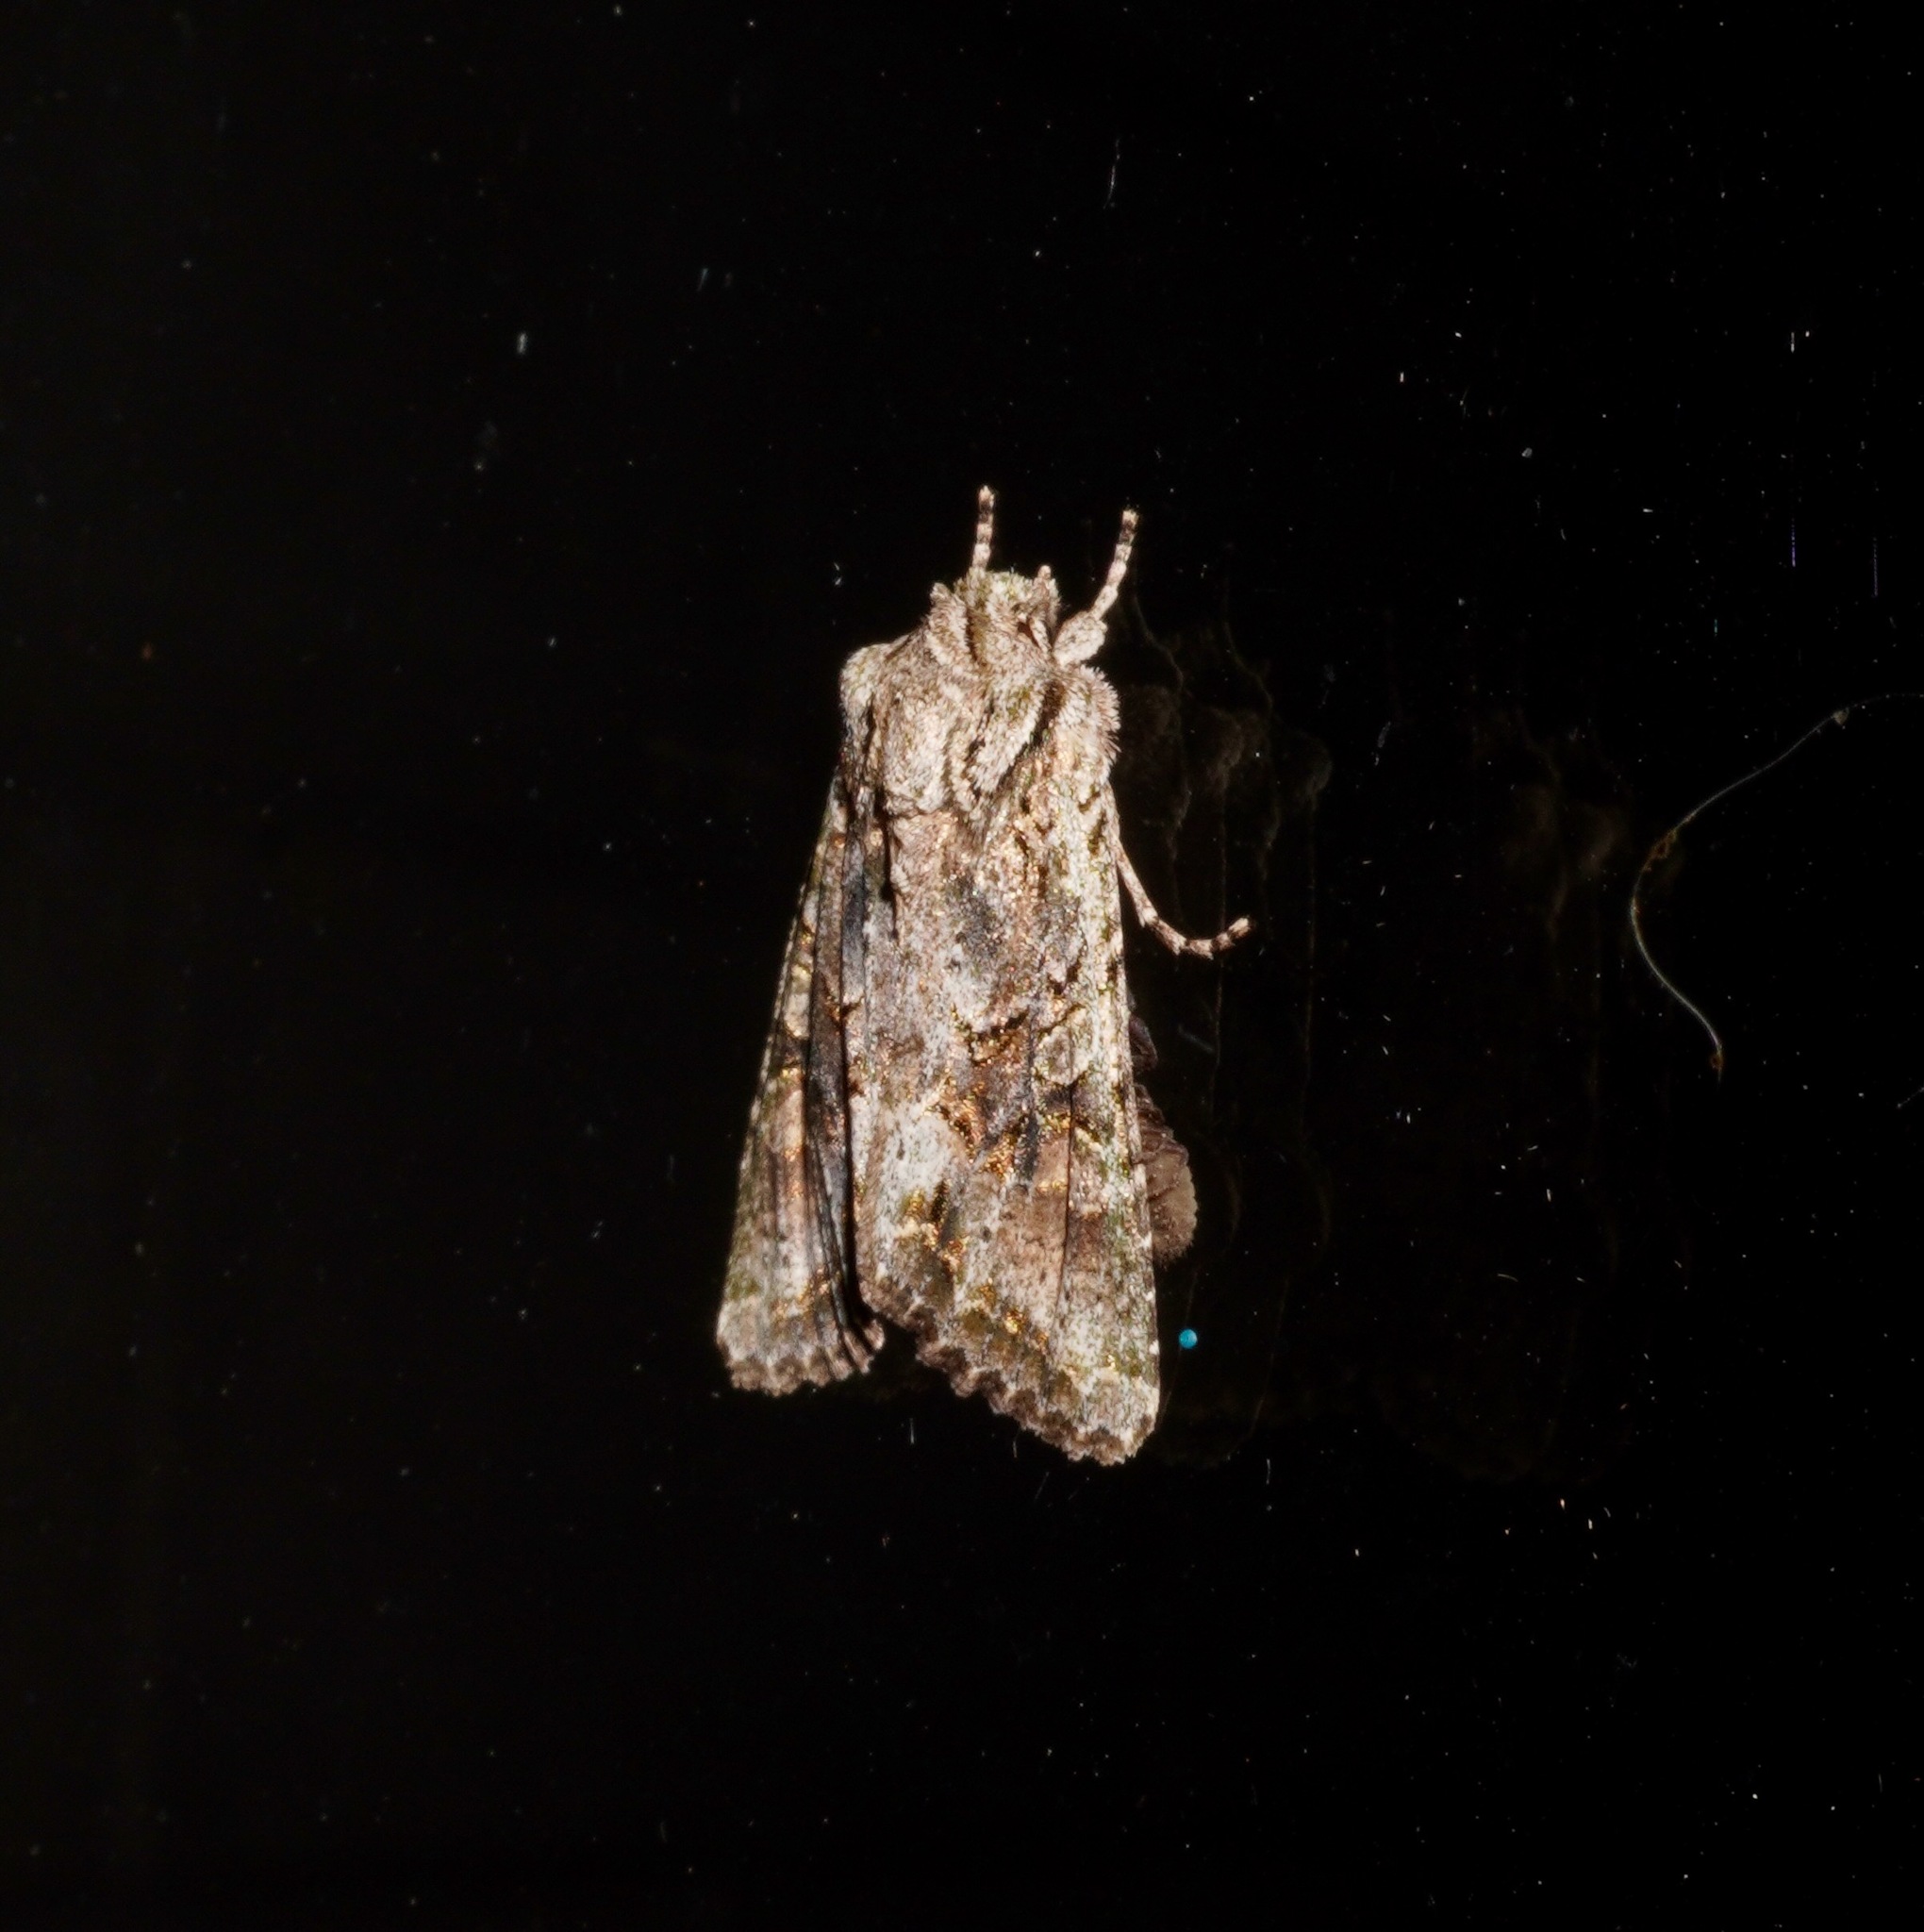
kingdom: Animalia
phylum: Arthropoda
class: Insecta
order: Lepidoptera
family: Noctuidae
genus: Ichneutica
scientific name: Ichneutica mutans
